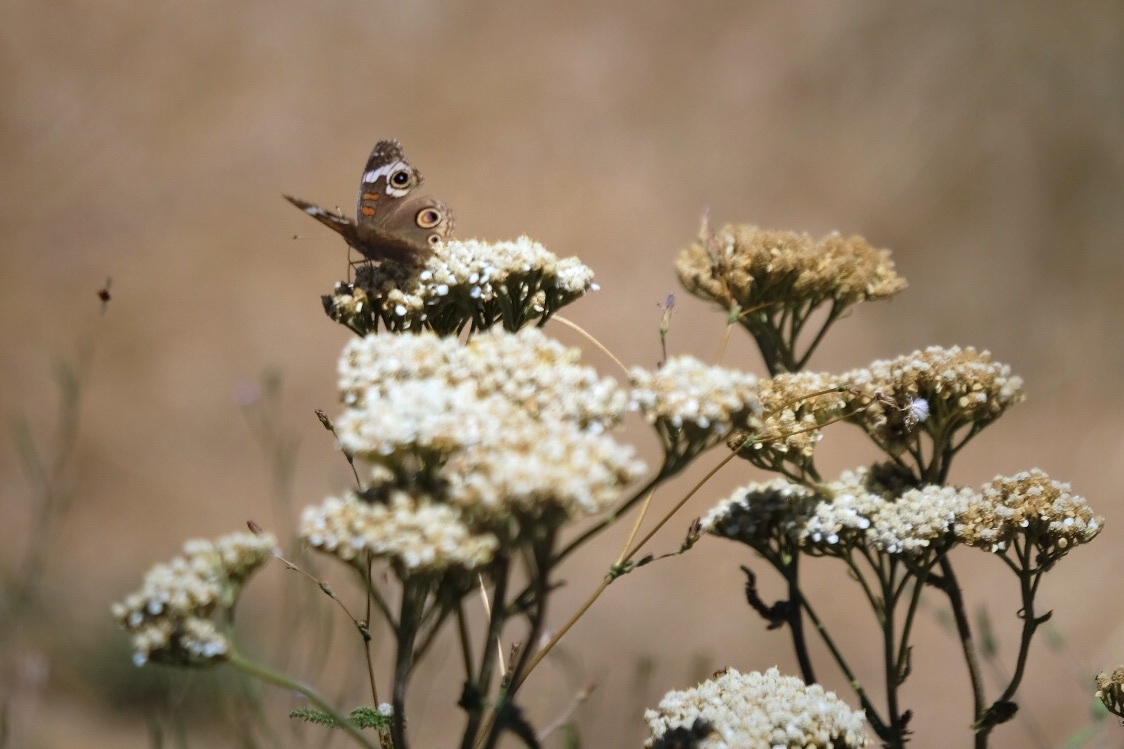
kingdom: Animalia
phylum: Arthropoda
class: Insecta
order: Lepidoptera
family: Nymphalidae
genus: Junonia
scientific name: Junonia grisea
